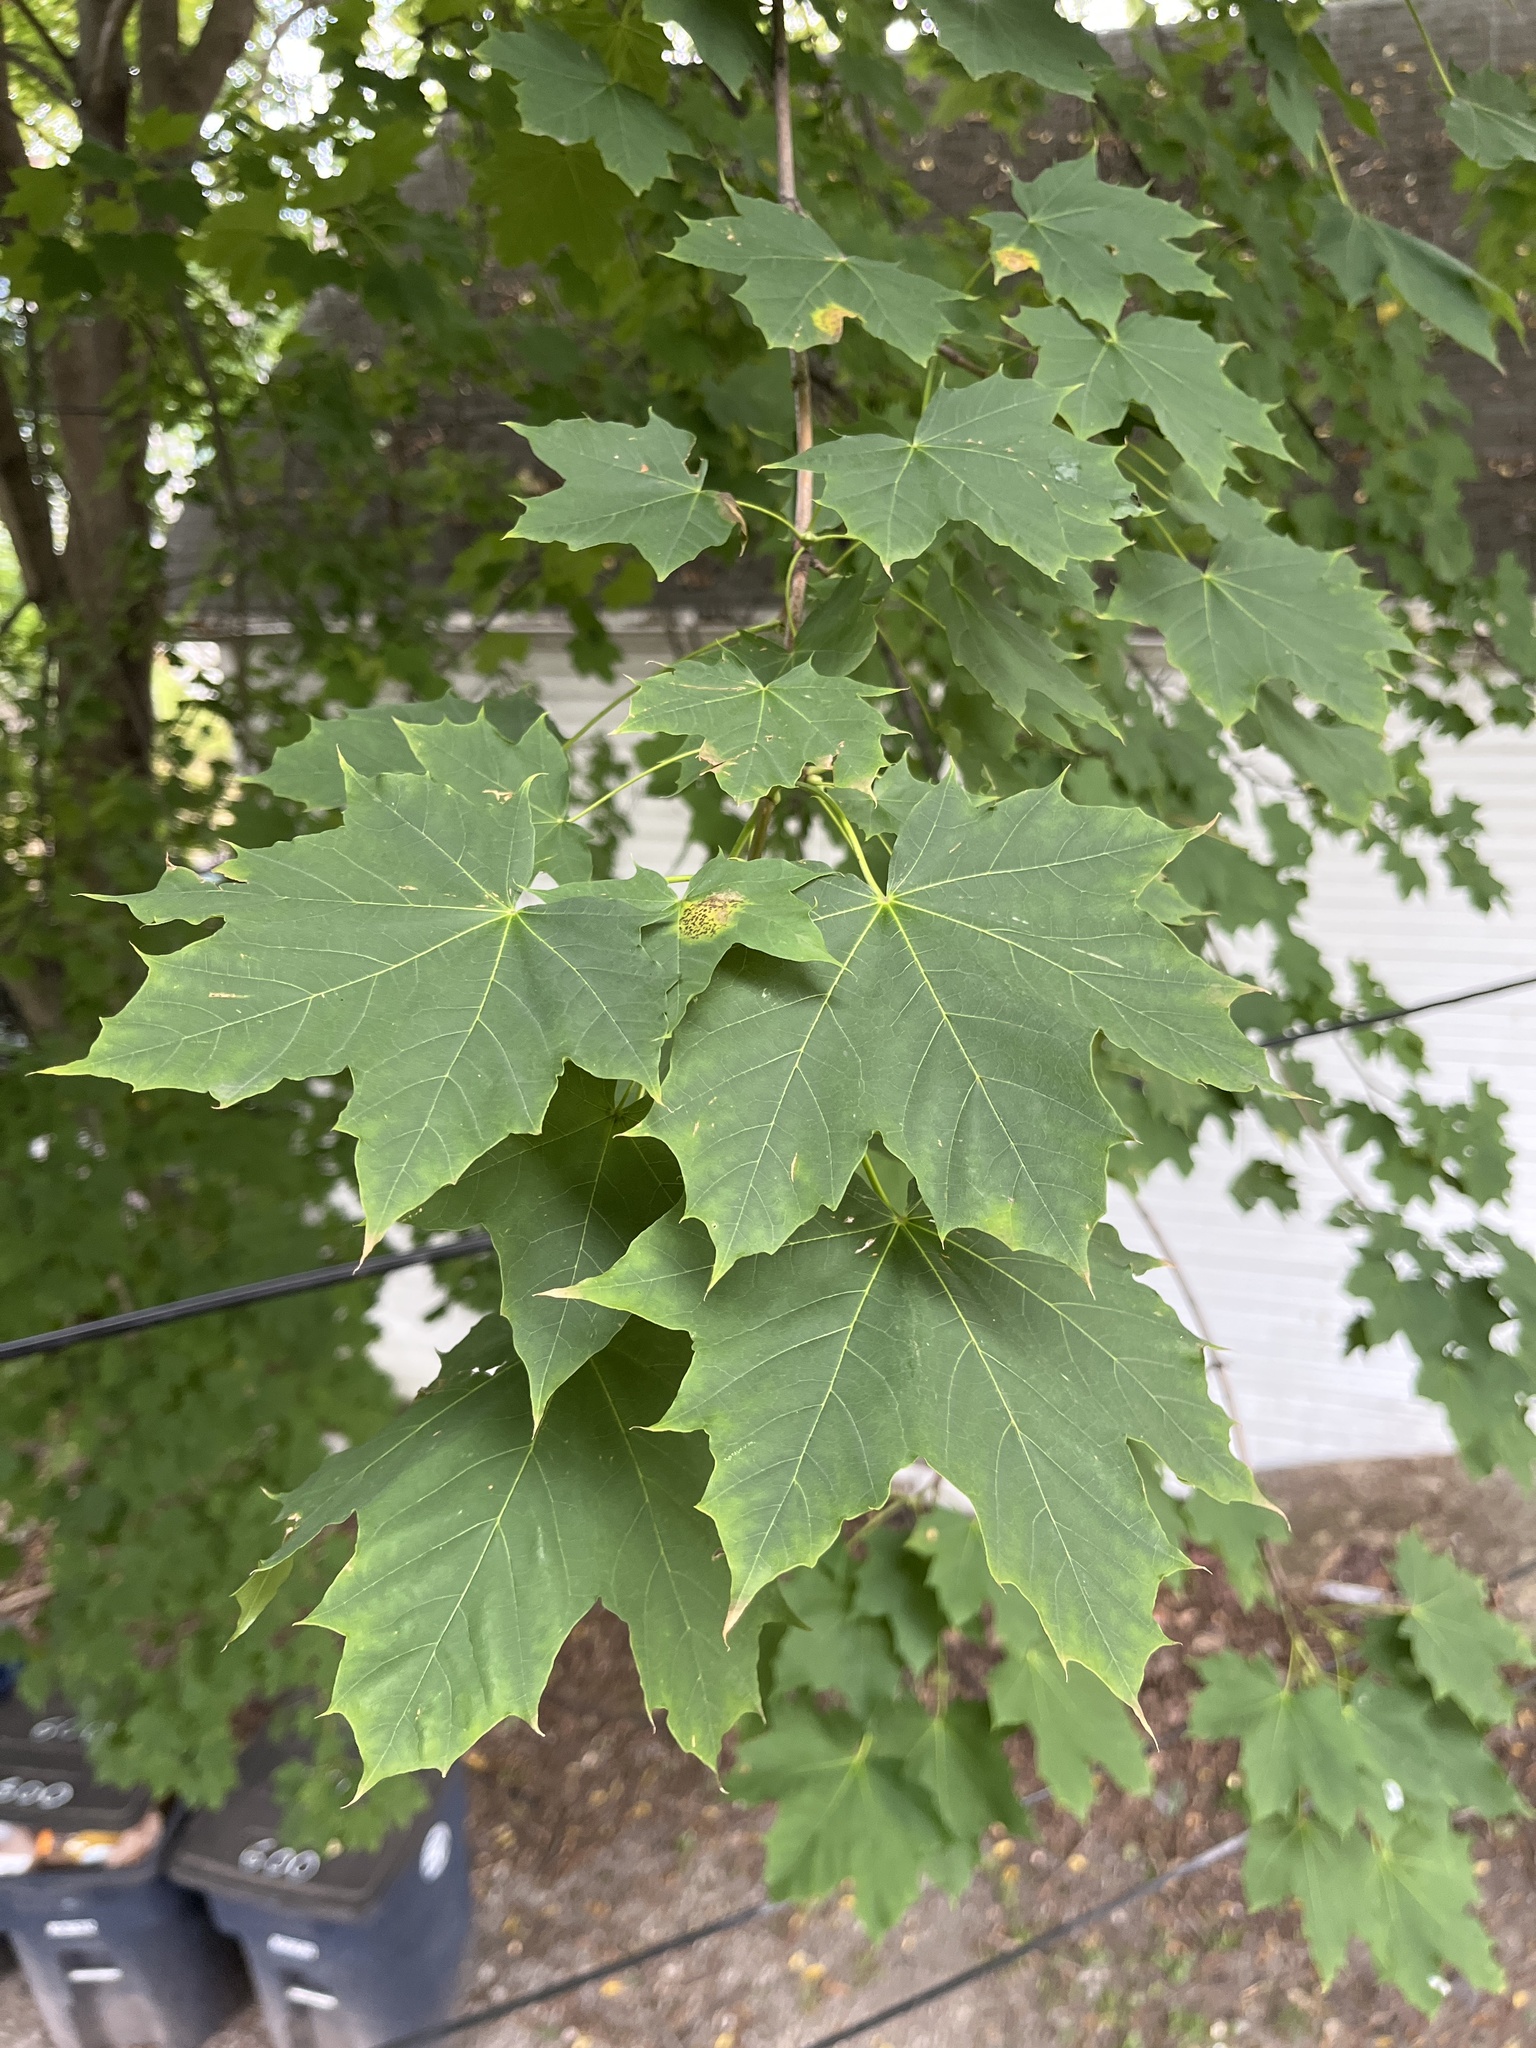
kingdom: Plantae
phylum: Tracheophyta
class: Magnoliopsida
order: Sapindales
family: Sapindaceae
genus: Acer
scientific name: Acer platanoides
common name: Norway maple
